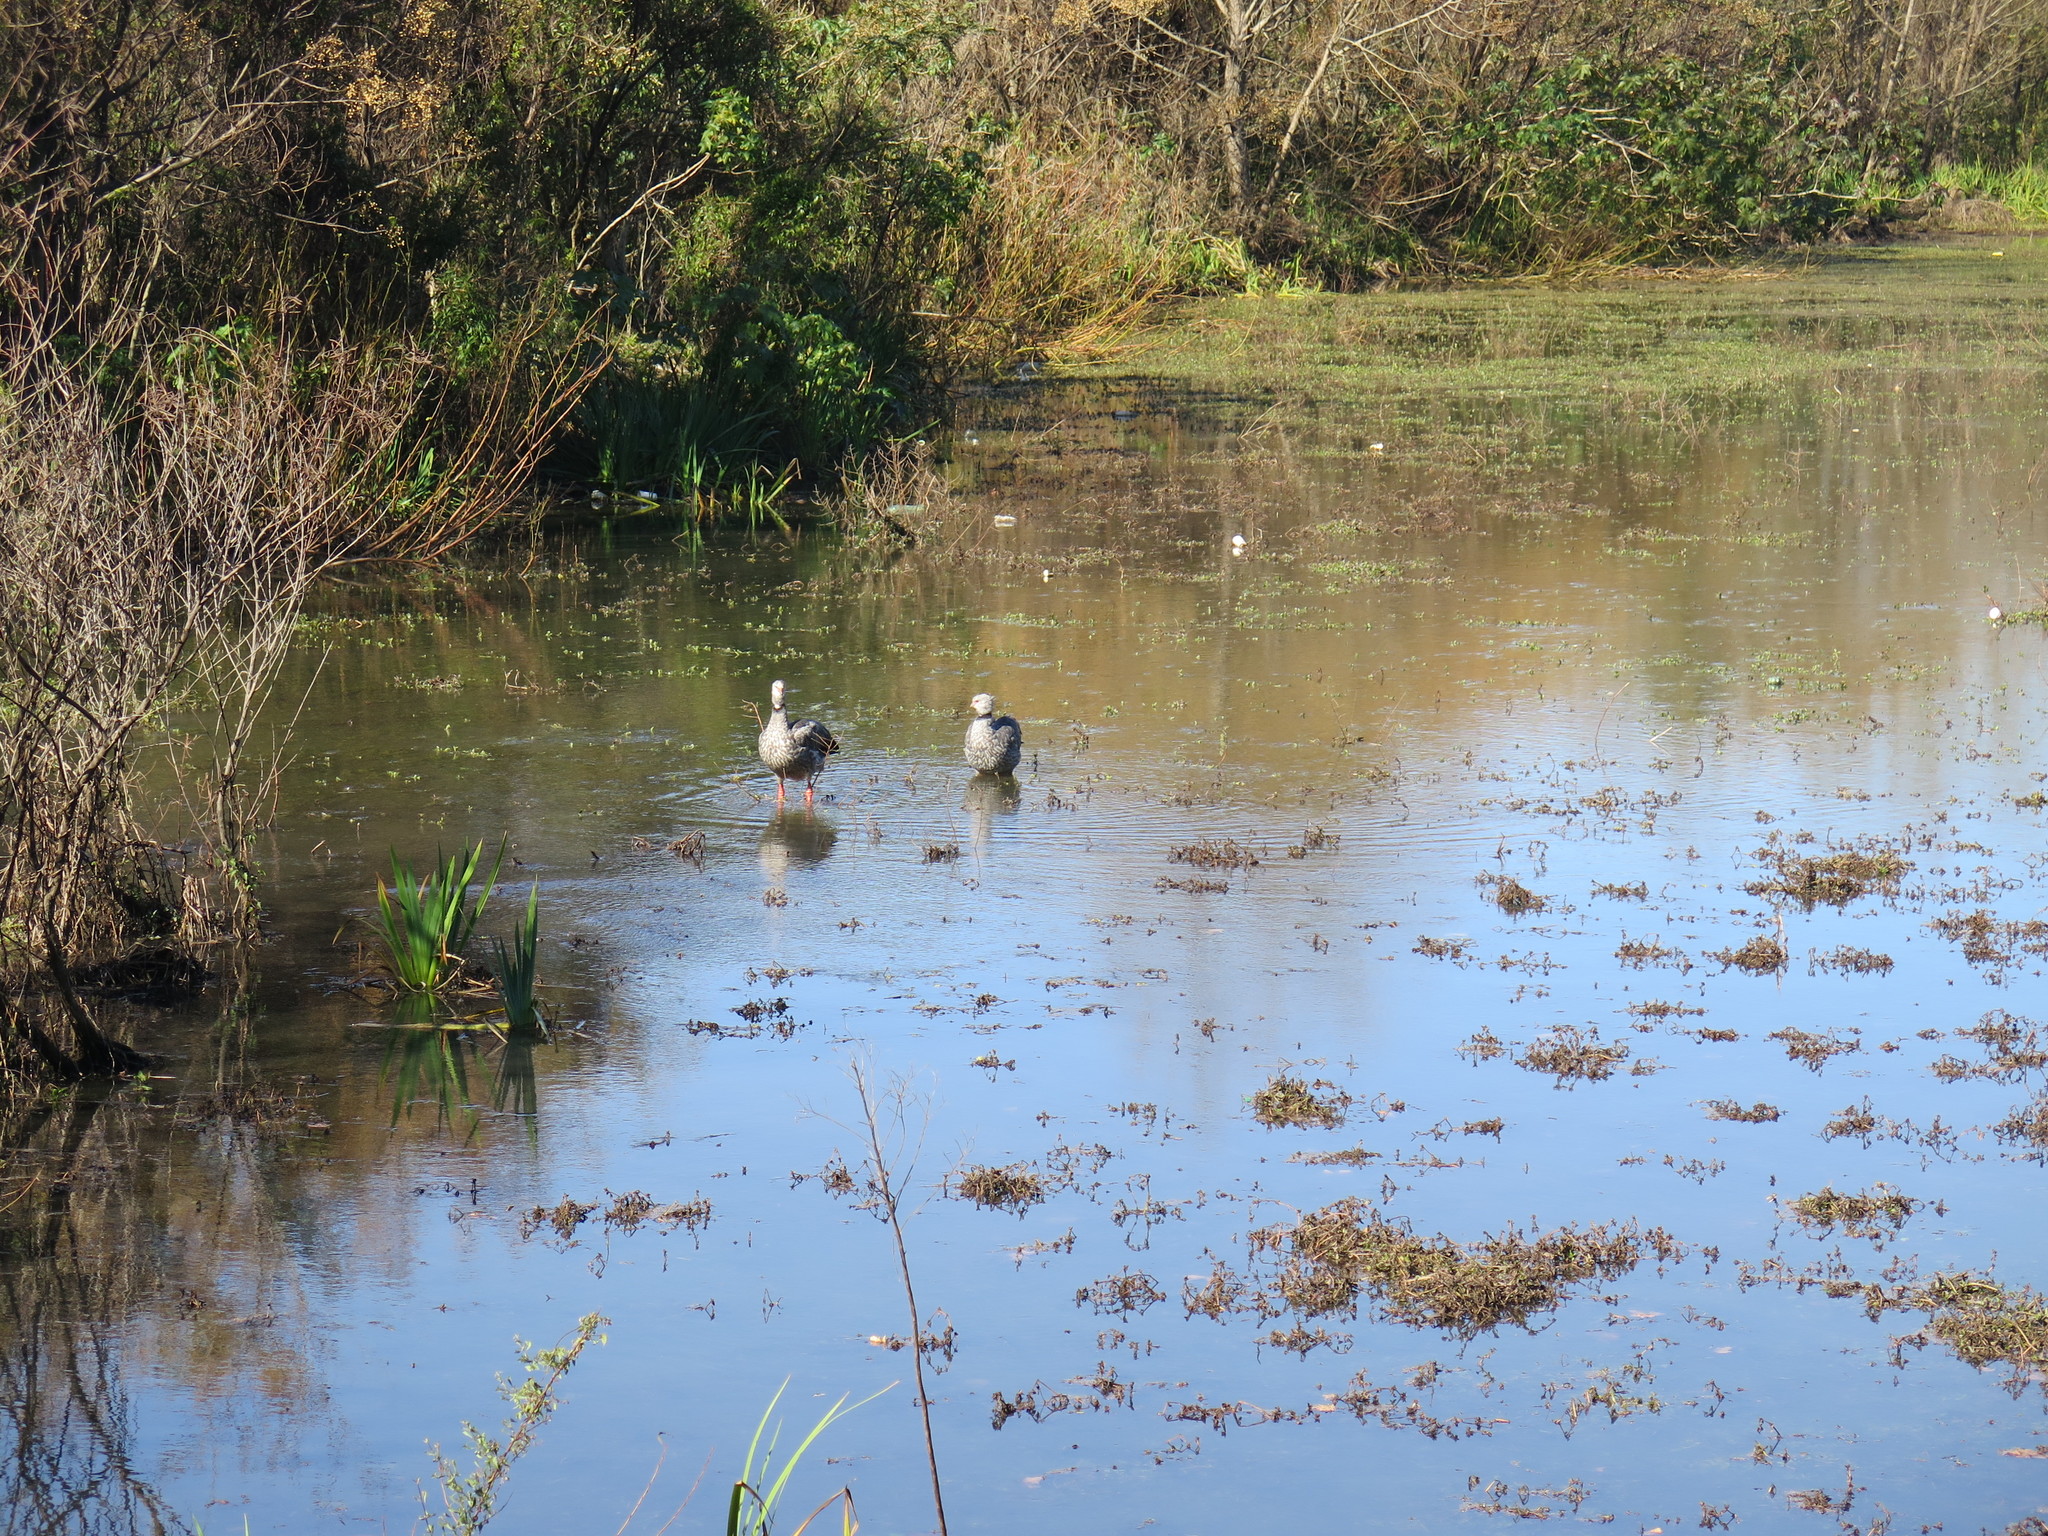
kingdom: Animalia
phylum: Chordata
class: Aves
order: Anseriformes
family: Anhimidae
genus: Chauna
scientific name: Chauna torquata
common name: Southern screamer
